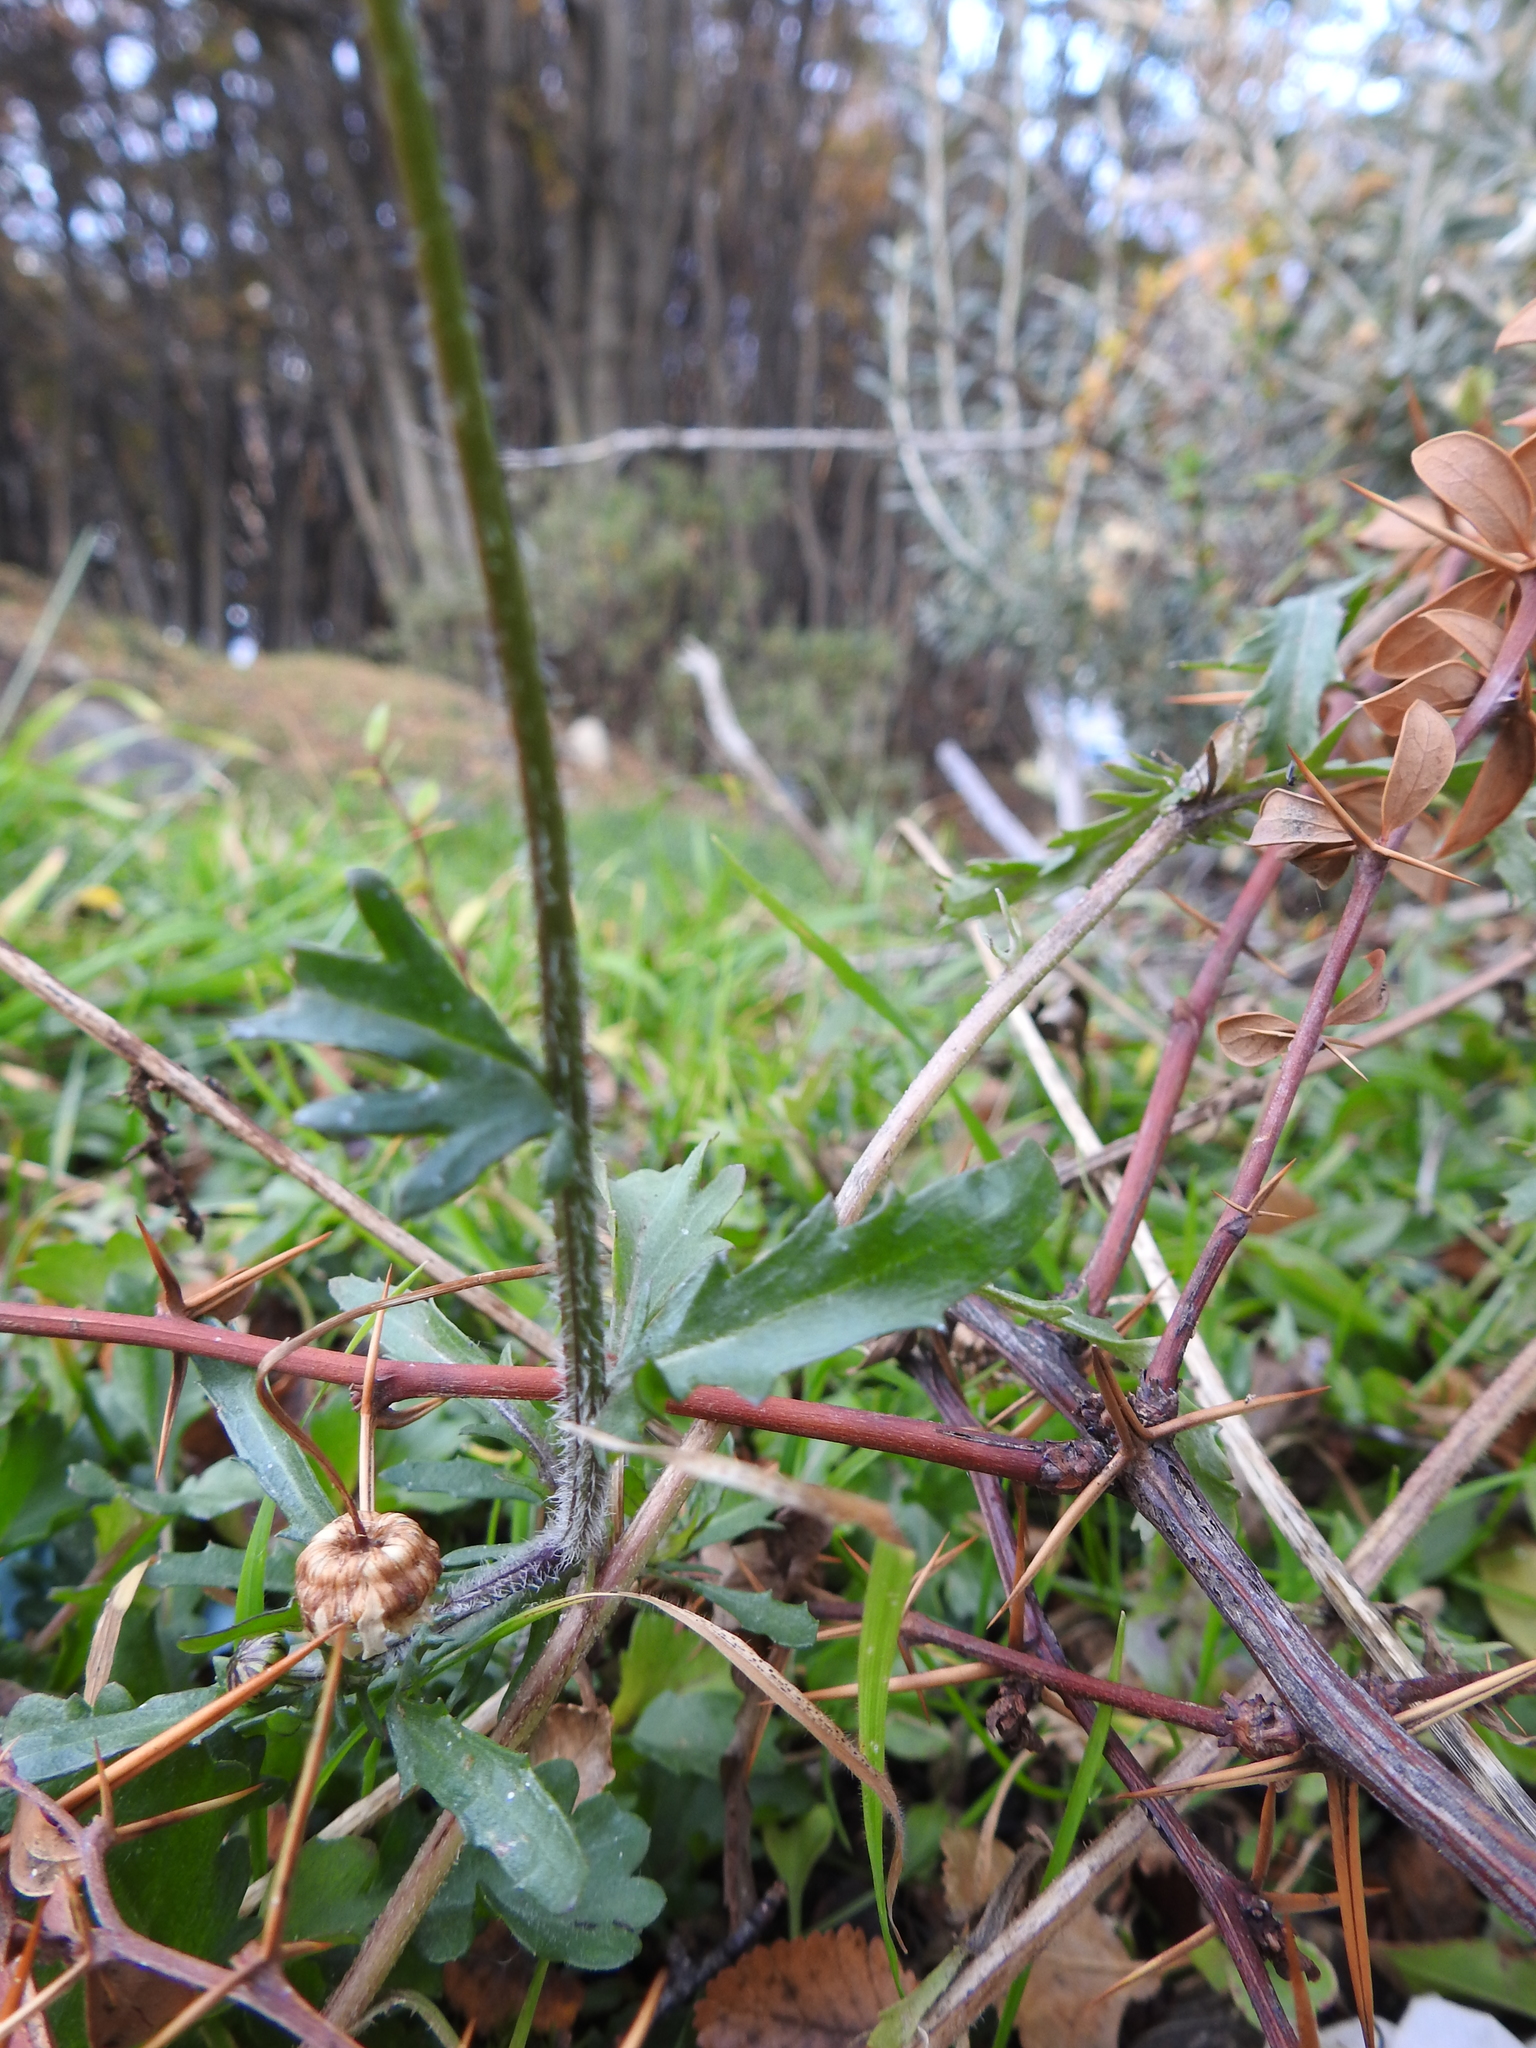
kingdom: Plantae
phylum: Tracheophyta
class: Magnoliopsida
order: Asterales
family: Asteraceae
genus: Leucanthemum
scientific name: Leucanthemum vulgare
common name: Oxeye daisy
